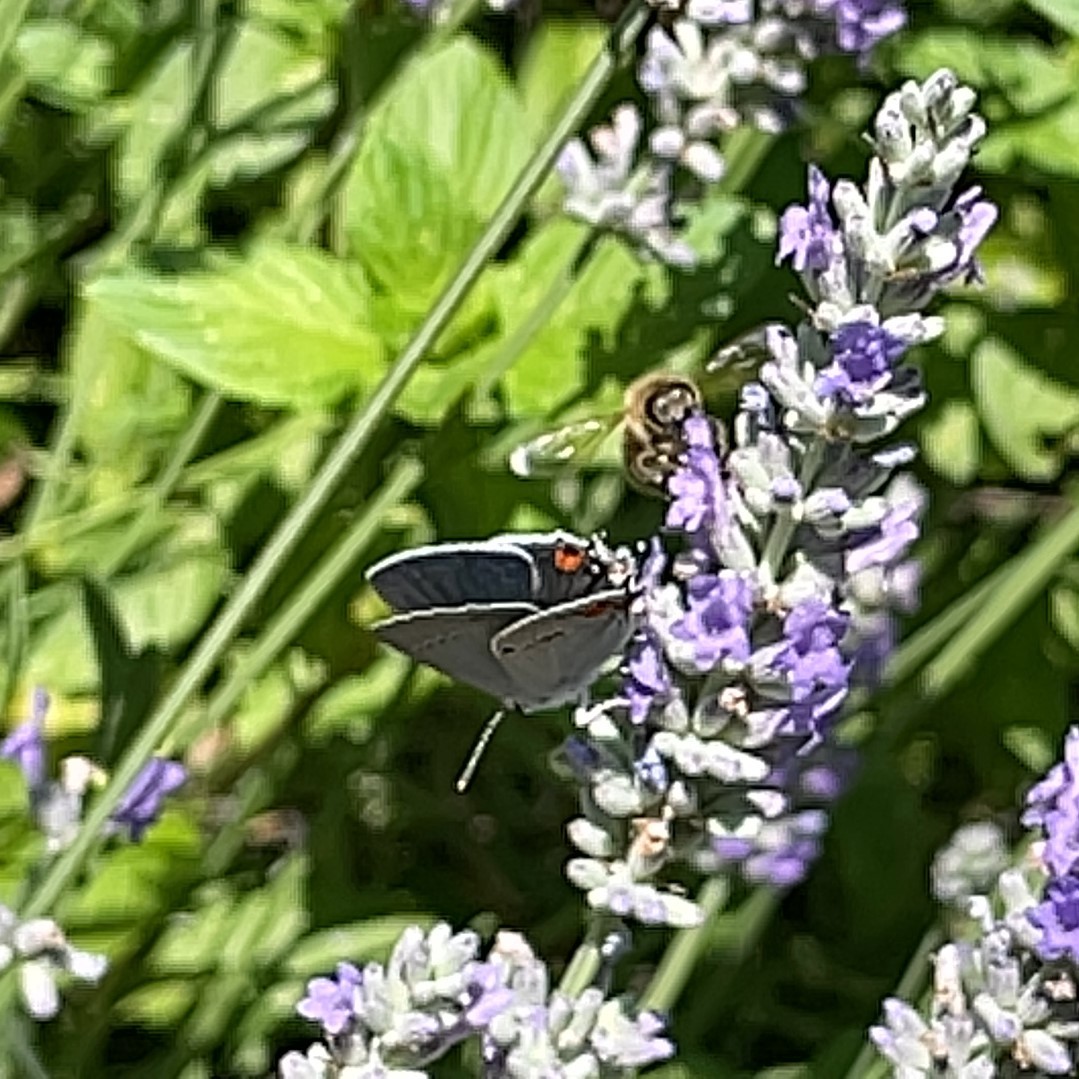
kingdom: Animalia
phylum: Arthropoda
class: Insecta
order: Lepidoptera
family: Lycaenidae
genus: Strymon
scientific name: Strymon melinus
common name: Gray hairstreak
